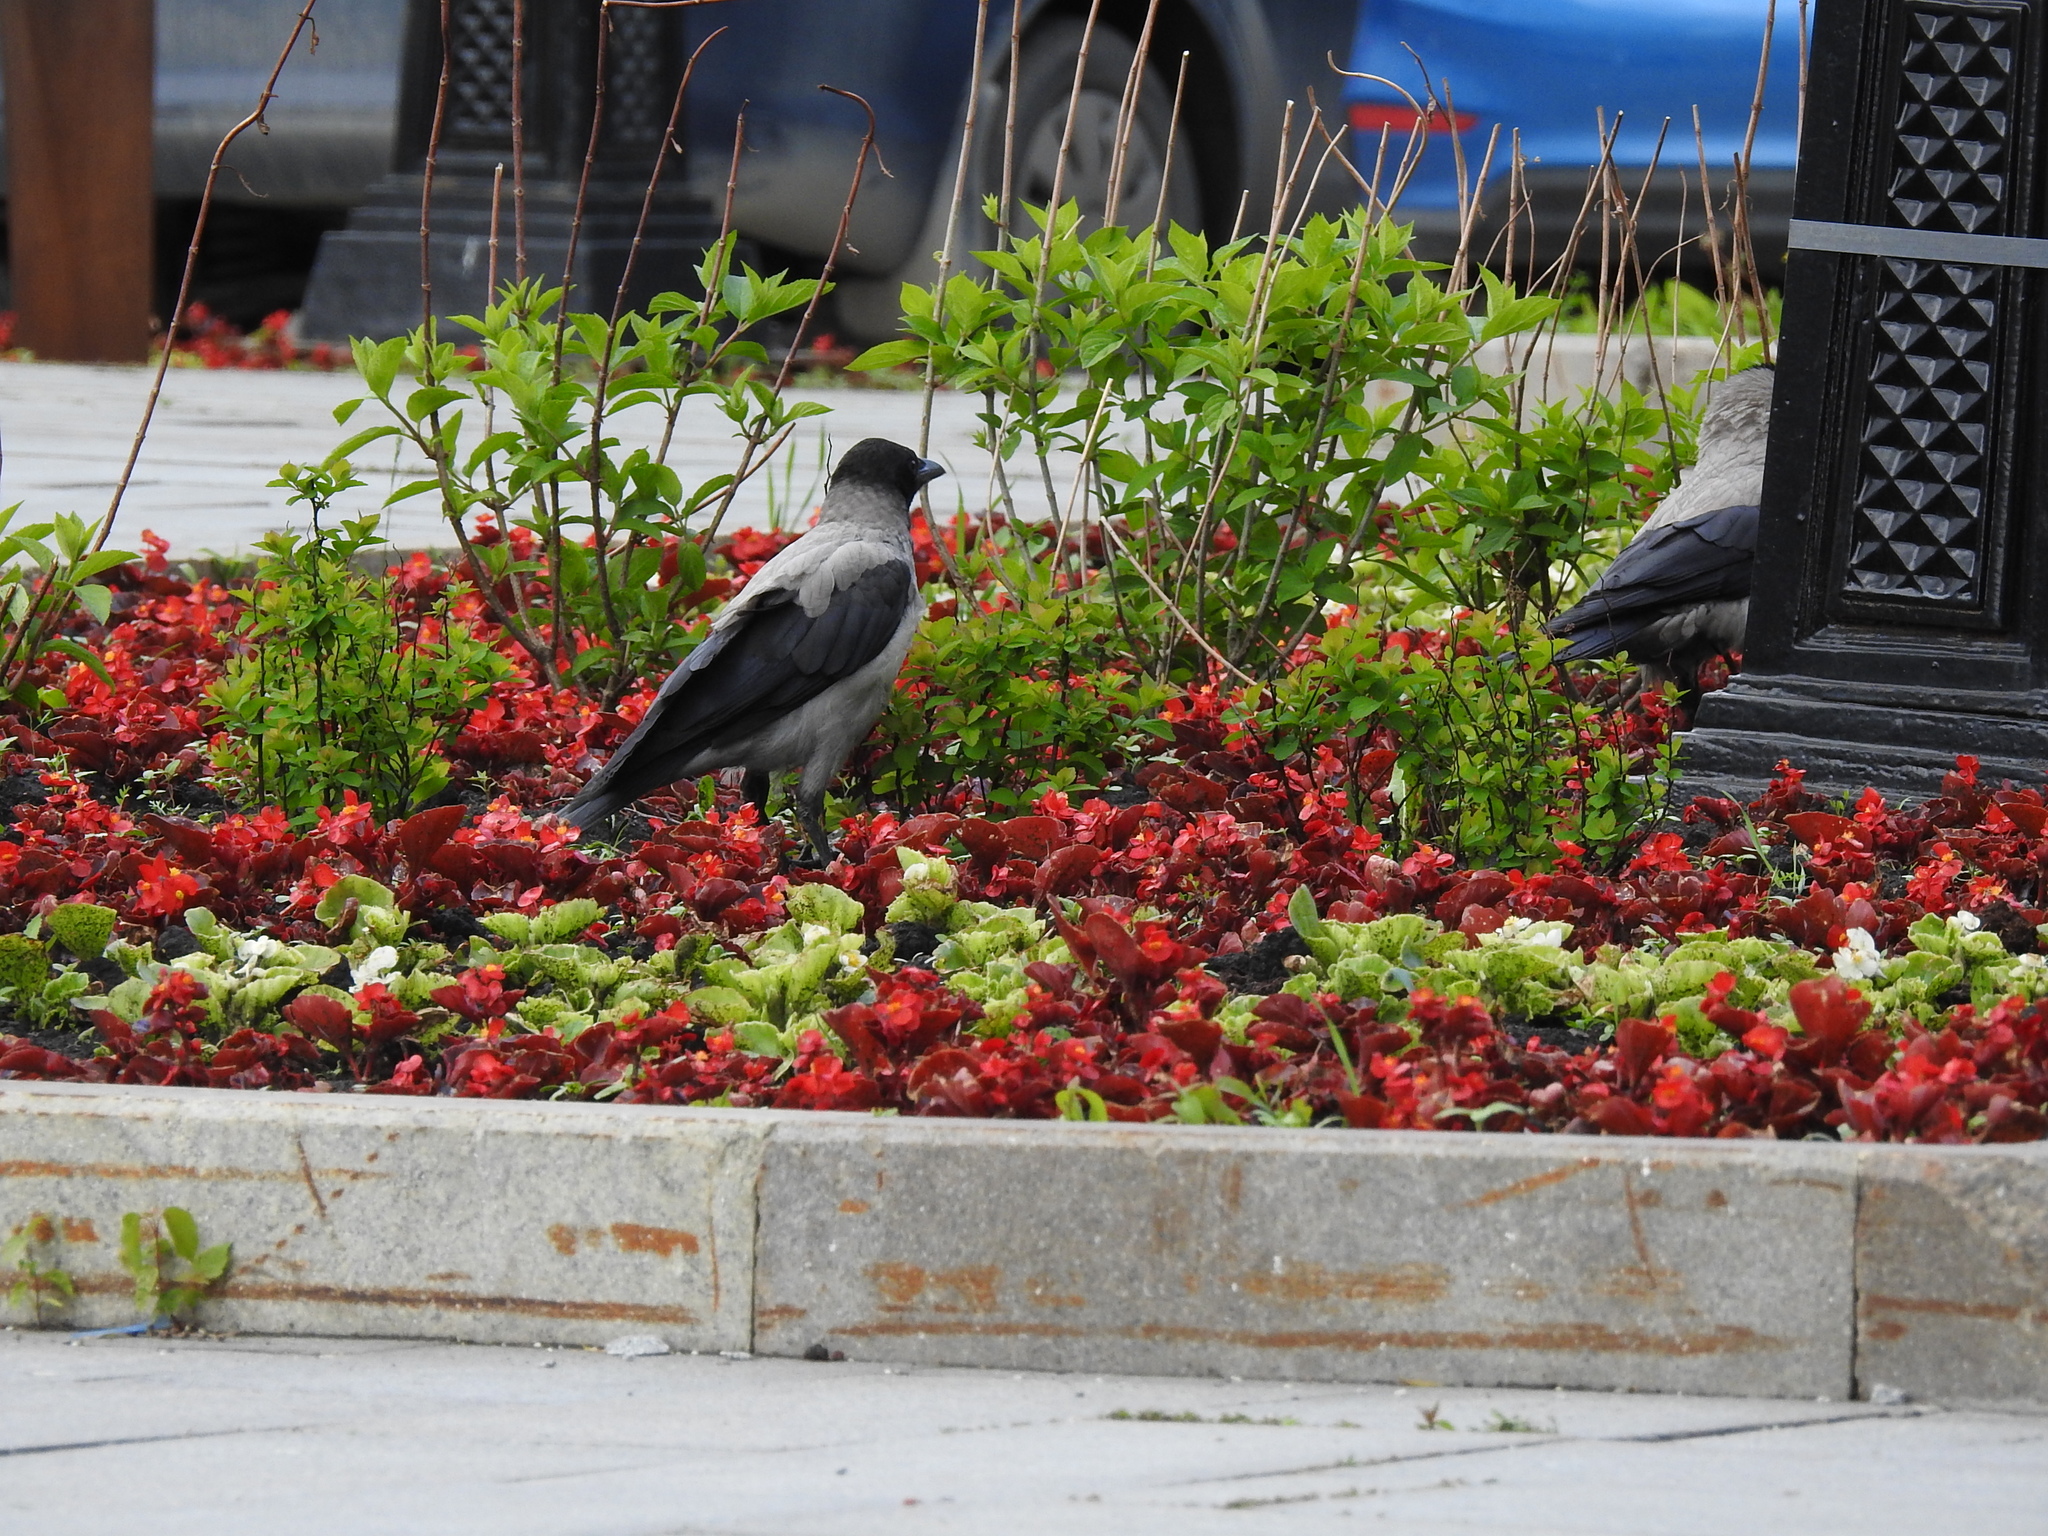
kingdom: Animalia
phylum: Chordata
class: Aves
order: Passeriformes
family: Corvidae
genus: Corvus
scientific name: Corvus cornix
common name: Hooded crow
